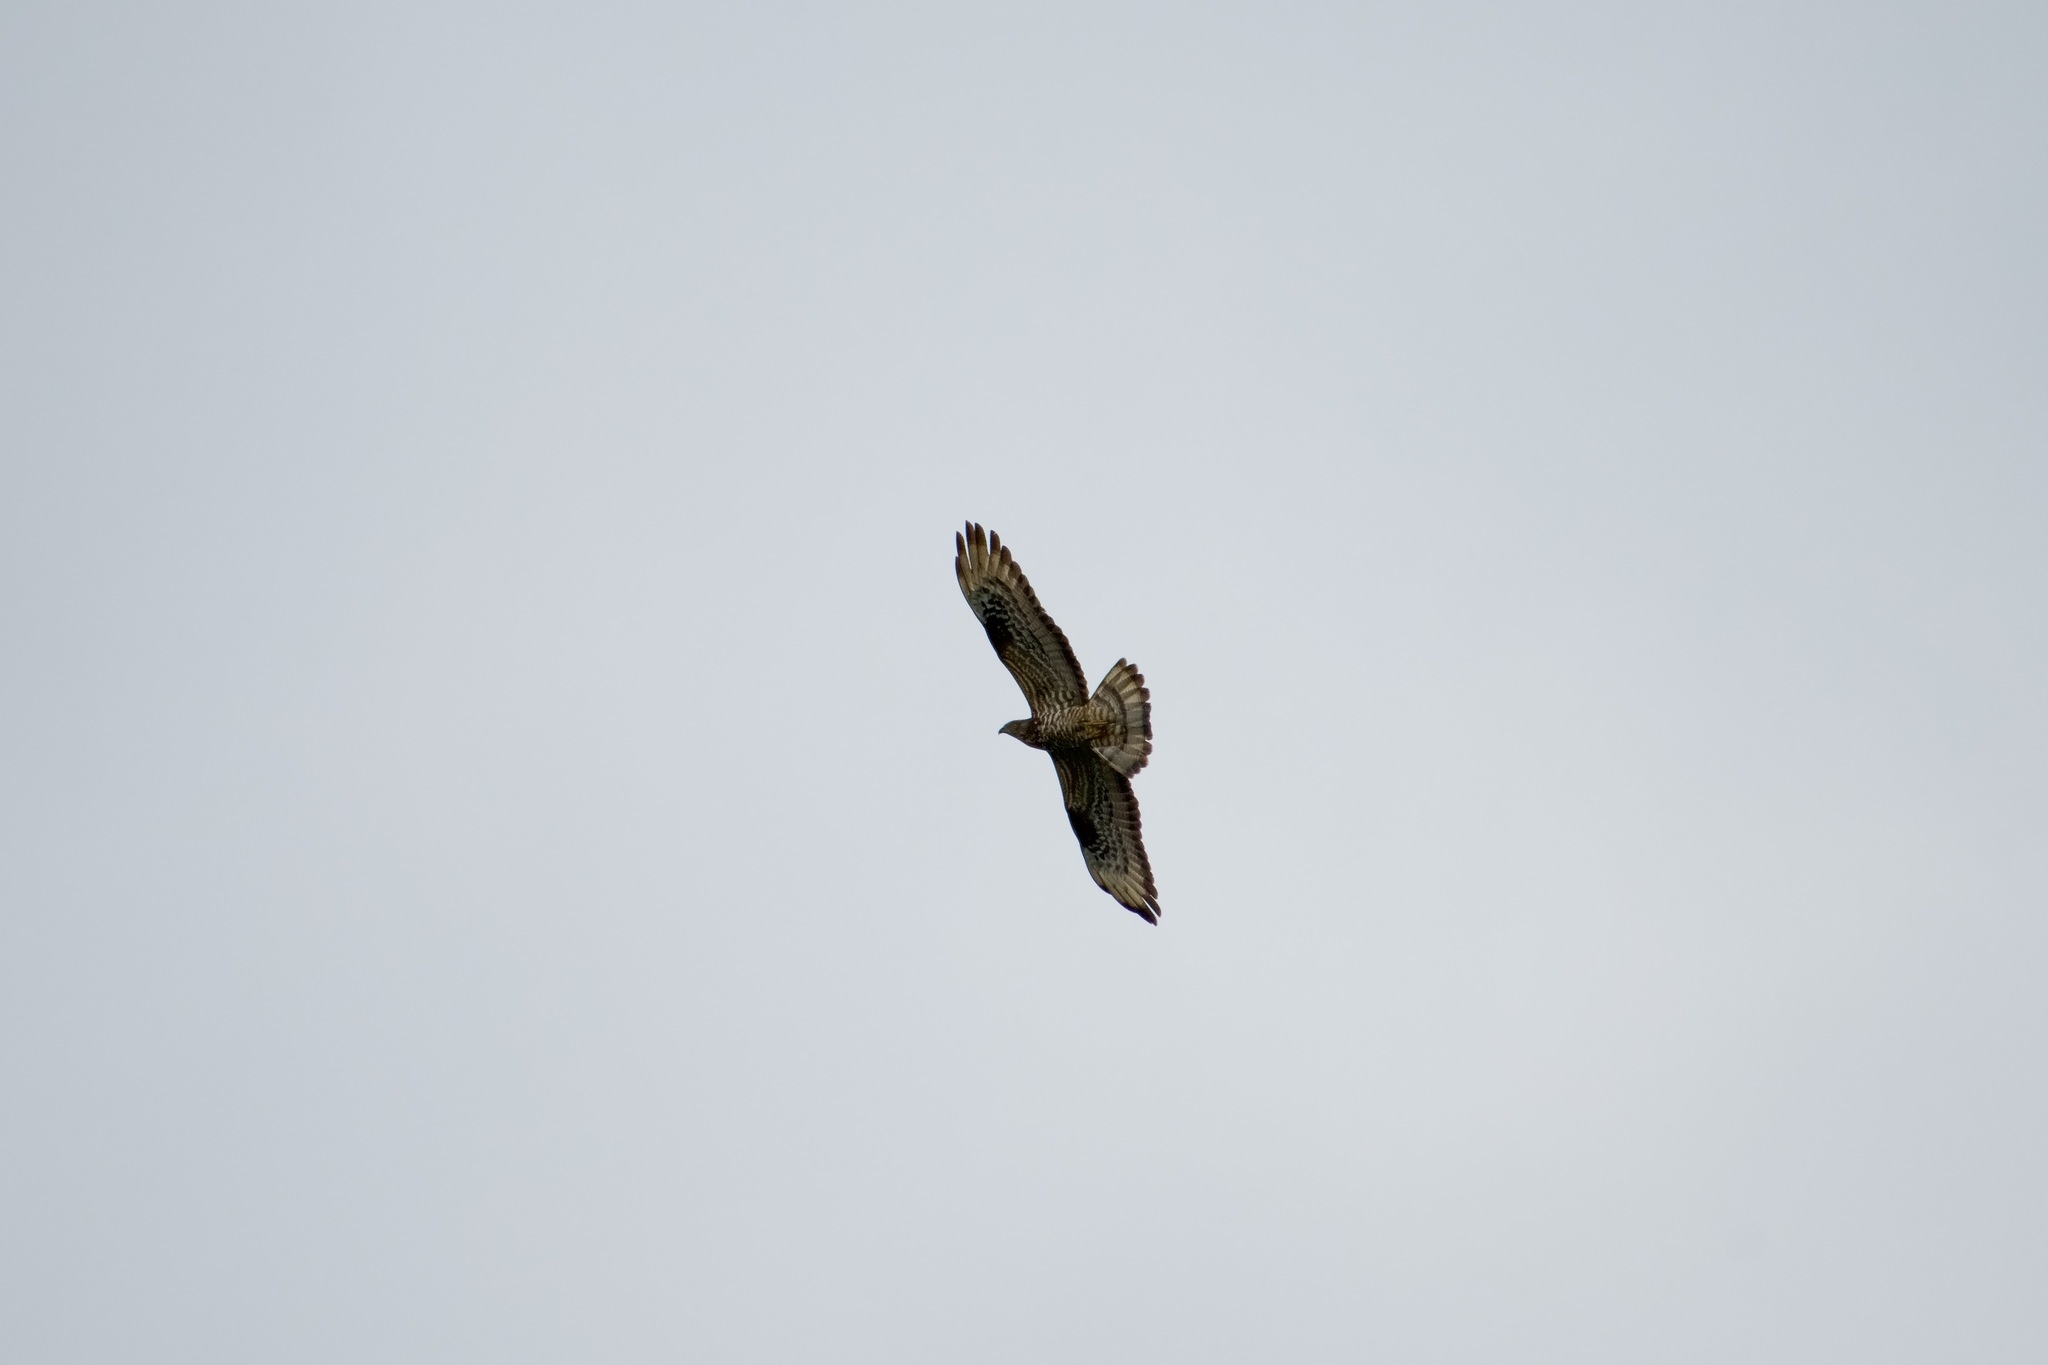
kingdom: Animalia
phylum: Chordata
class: Aves
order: Accipitriformes
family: Accipitridae
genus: Pernis
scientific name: Pernis apivorus
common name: European honey buzzard
